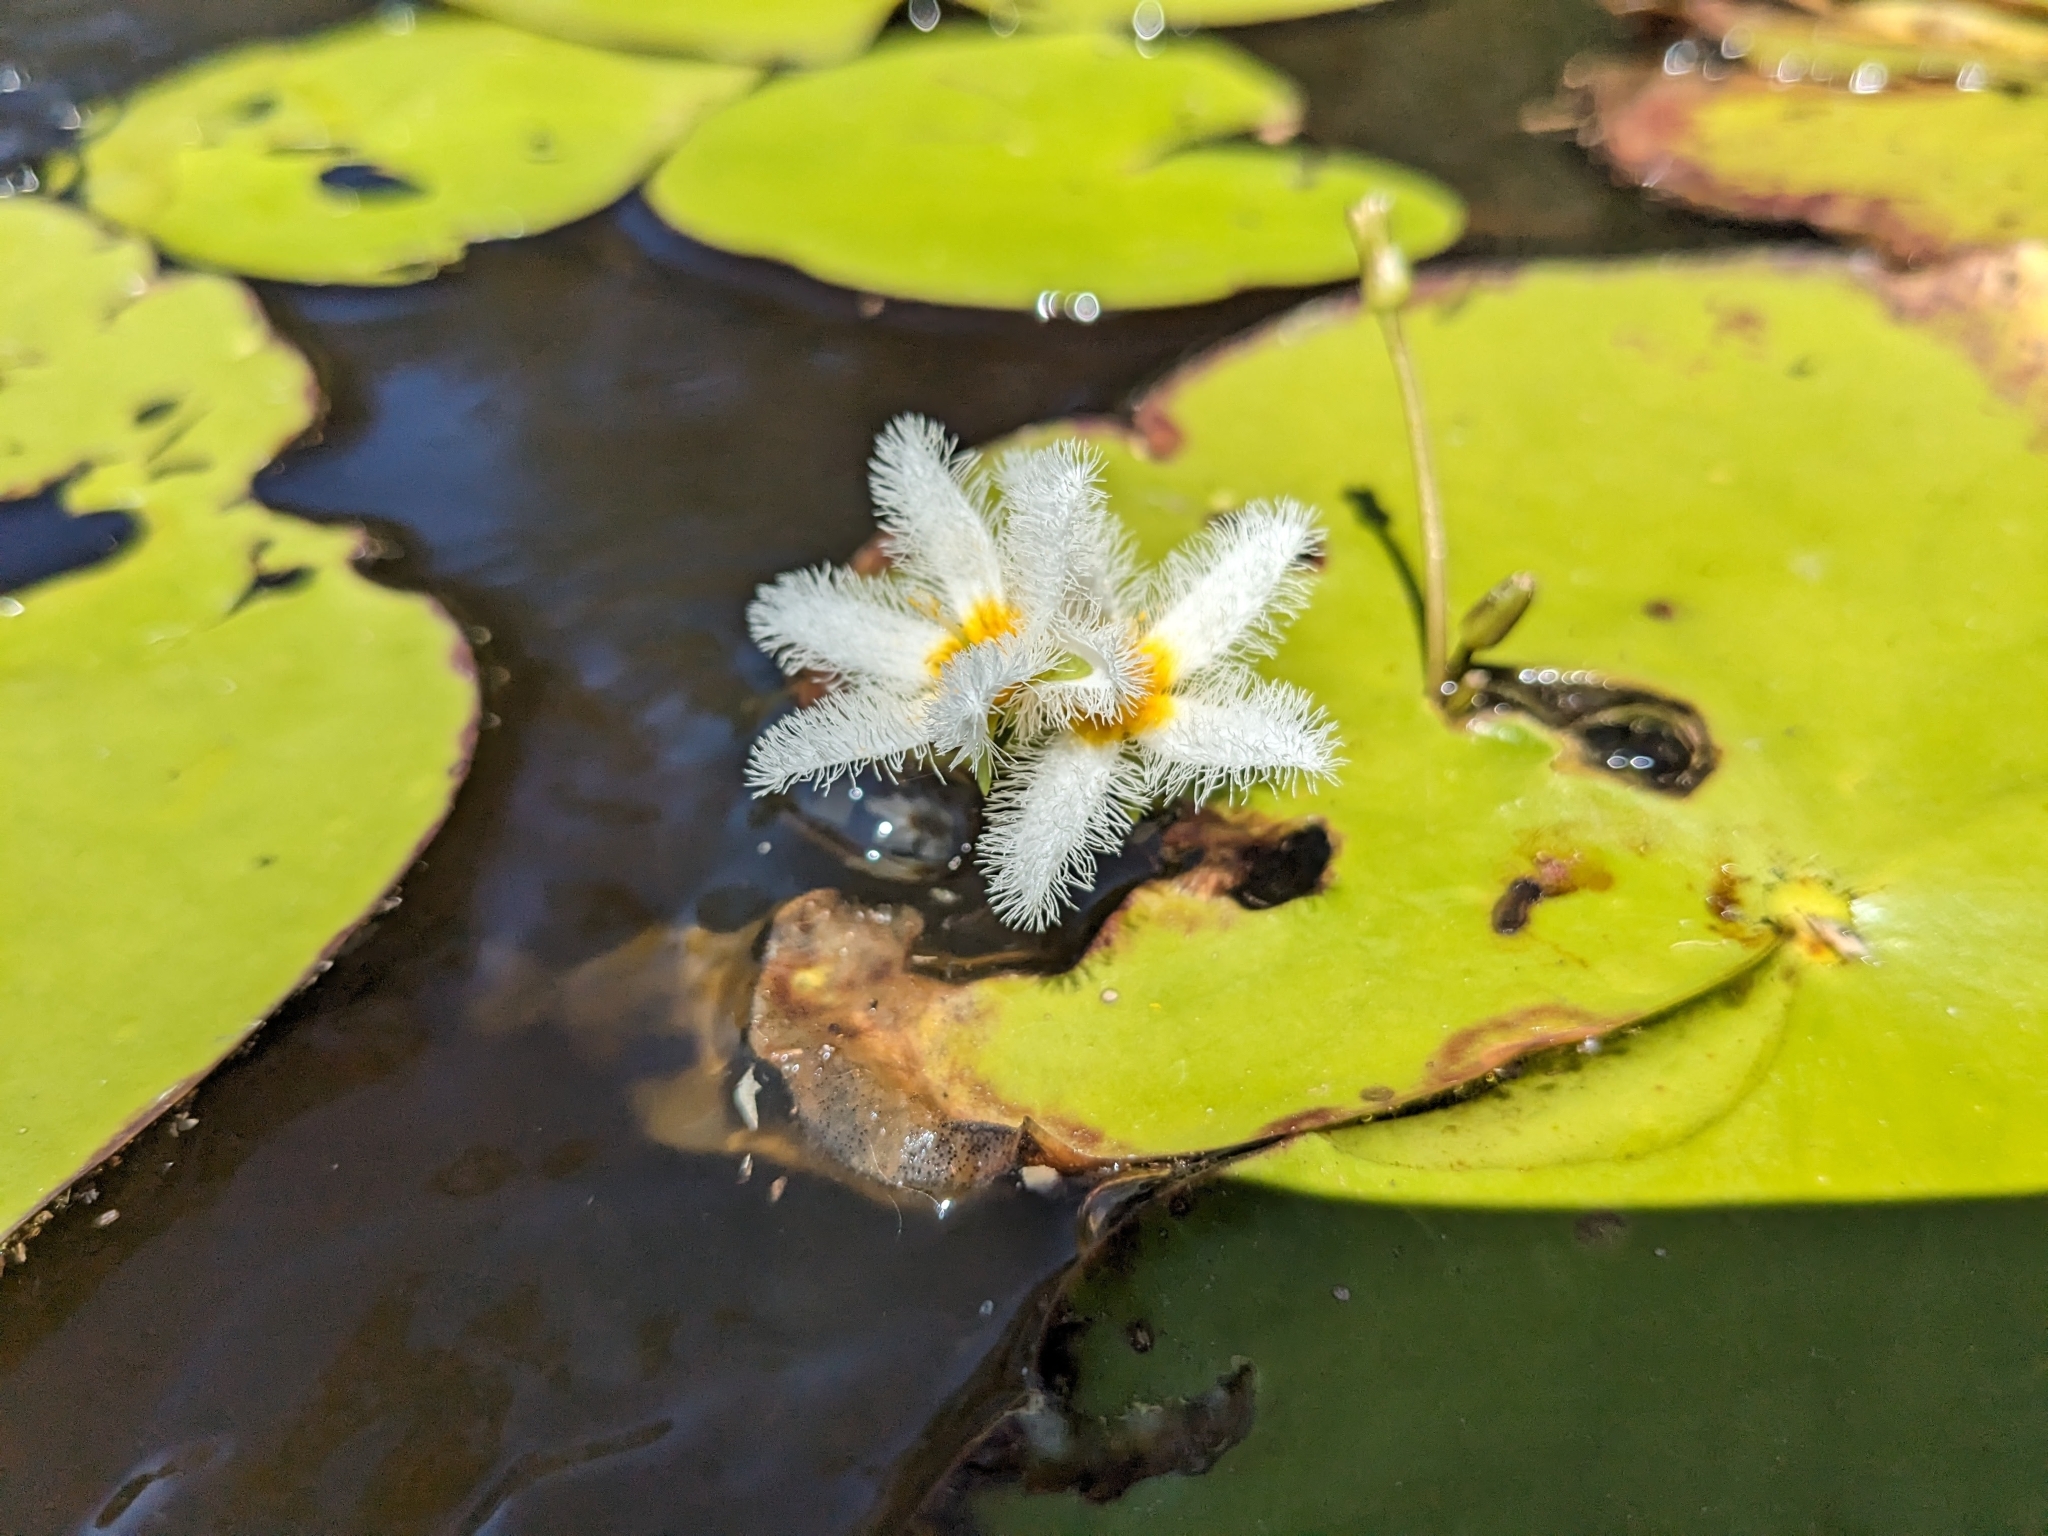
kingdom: Plantae
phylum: Tracheophyta
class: Magnoliopsida
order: Asterales
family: Menyanthaceae
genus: Nymphoides
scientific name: Nymphoides indica
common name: Water-snowflake
